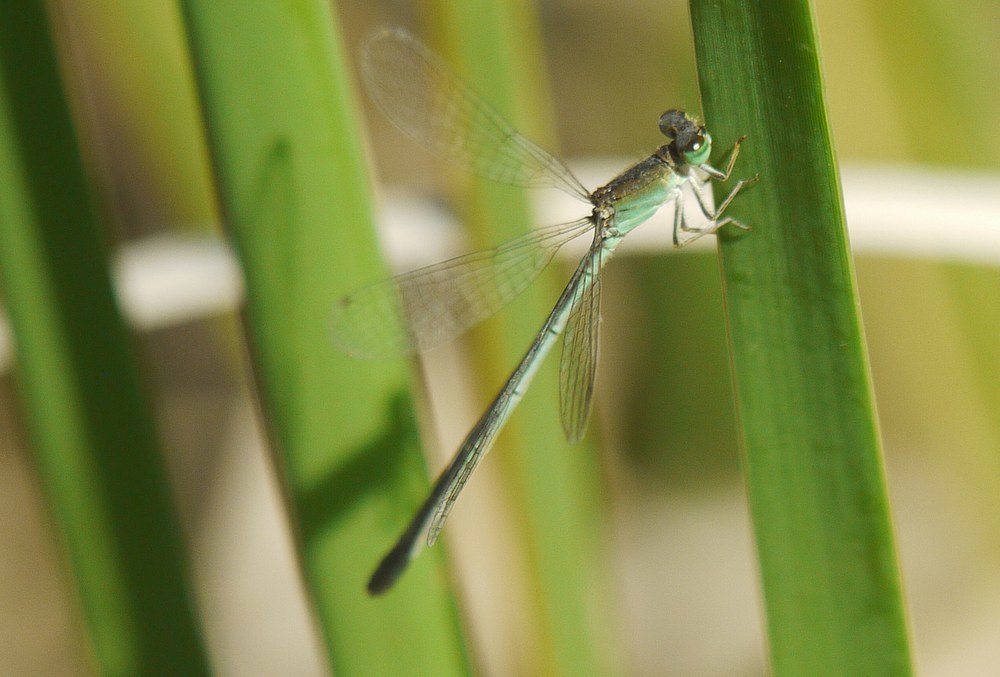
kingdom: Animalia
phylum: Arthropoda
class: Insecta
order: Odonata
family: Coenagrionidae
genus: Ischnura
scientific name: Ischnura pumilio
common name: Scarce blue-tailed damselfly
